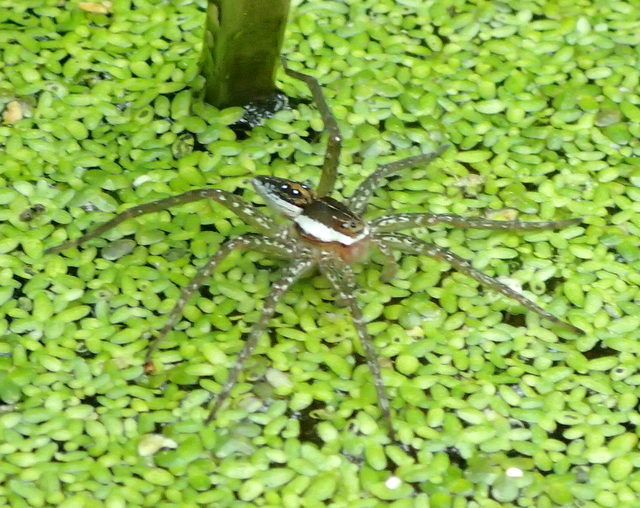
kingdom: Animalia
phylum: Arthropoda
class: Arachnida
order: Araneae
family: Pisauridae
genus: Dolomedes
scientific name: Dolomedes triton
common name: Six-spotted fishing spider
